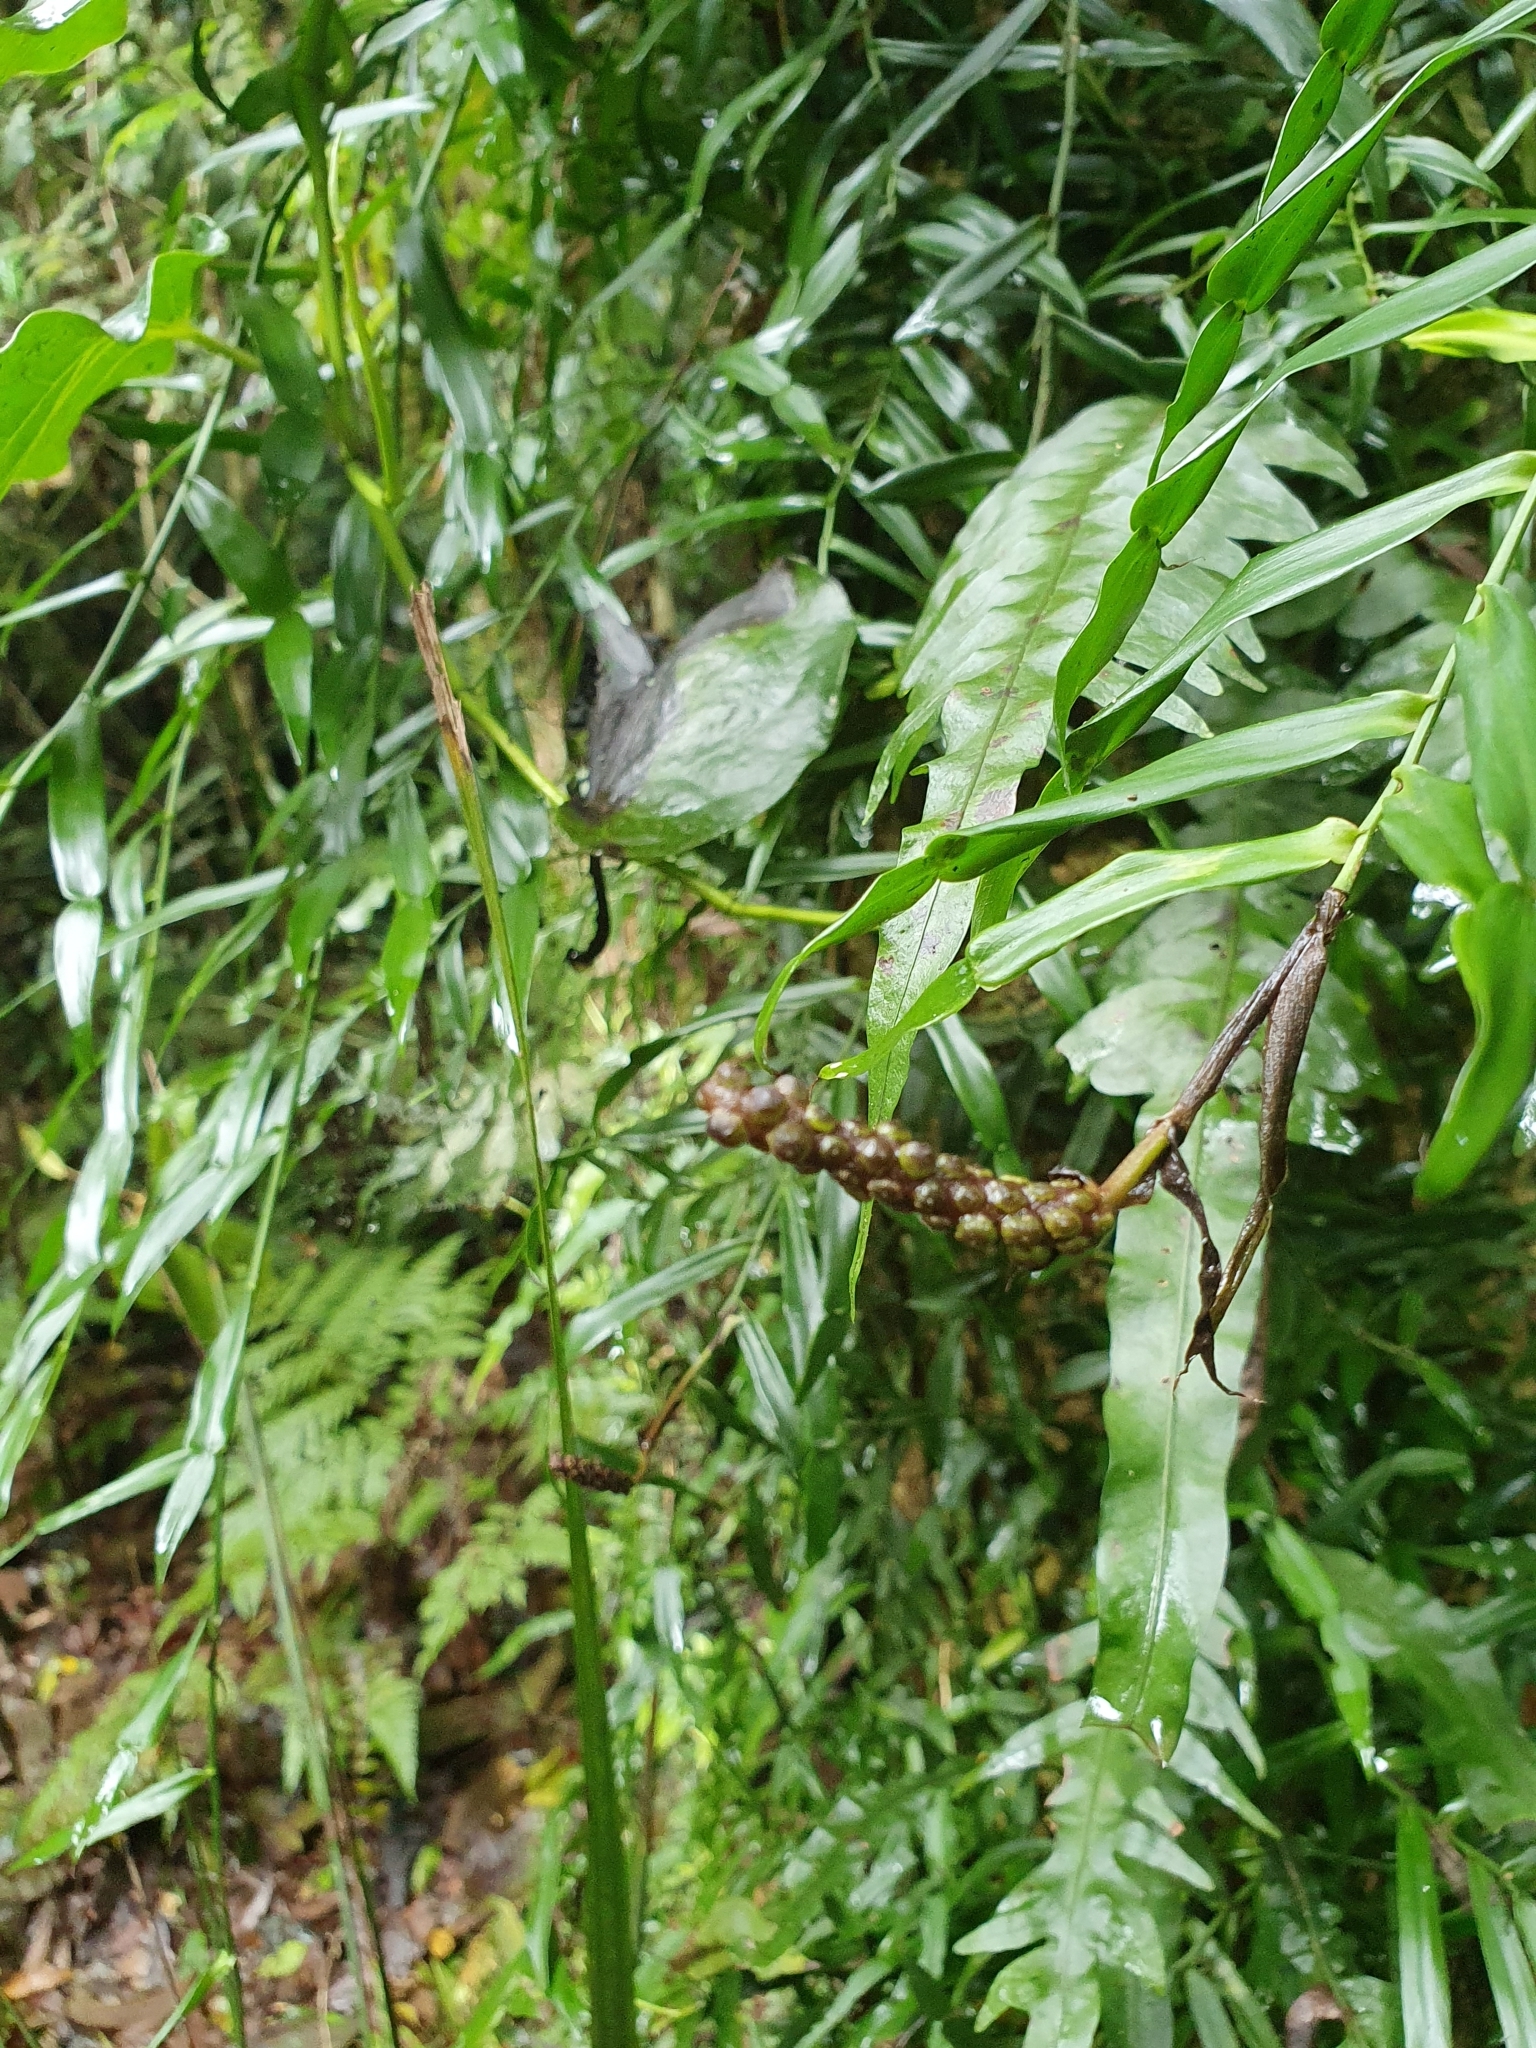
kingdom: Plantae
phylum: Tracheophyta
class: Liliopsida
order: Alismatales
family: Araceae
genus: Pothos
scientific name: Pothos longipes
